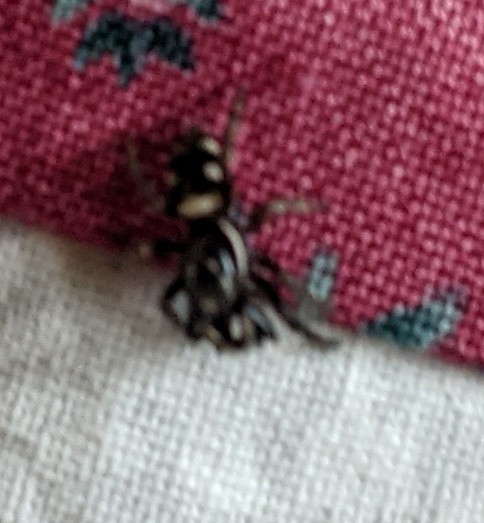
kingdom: Animalia
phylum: Arthropoda
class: Arachnida
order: Araneae
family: Salticidae
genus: Salticus
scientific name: Salticus scenicus
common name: Zebra jumper
